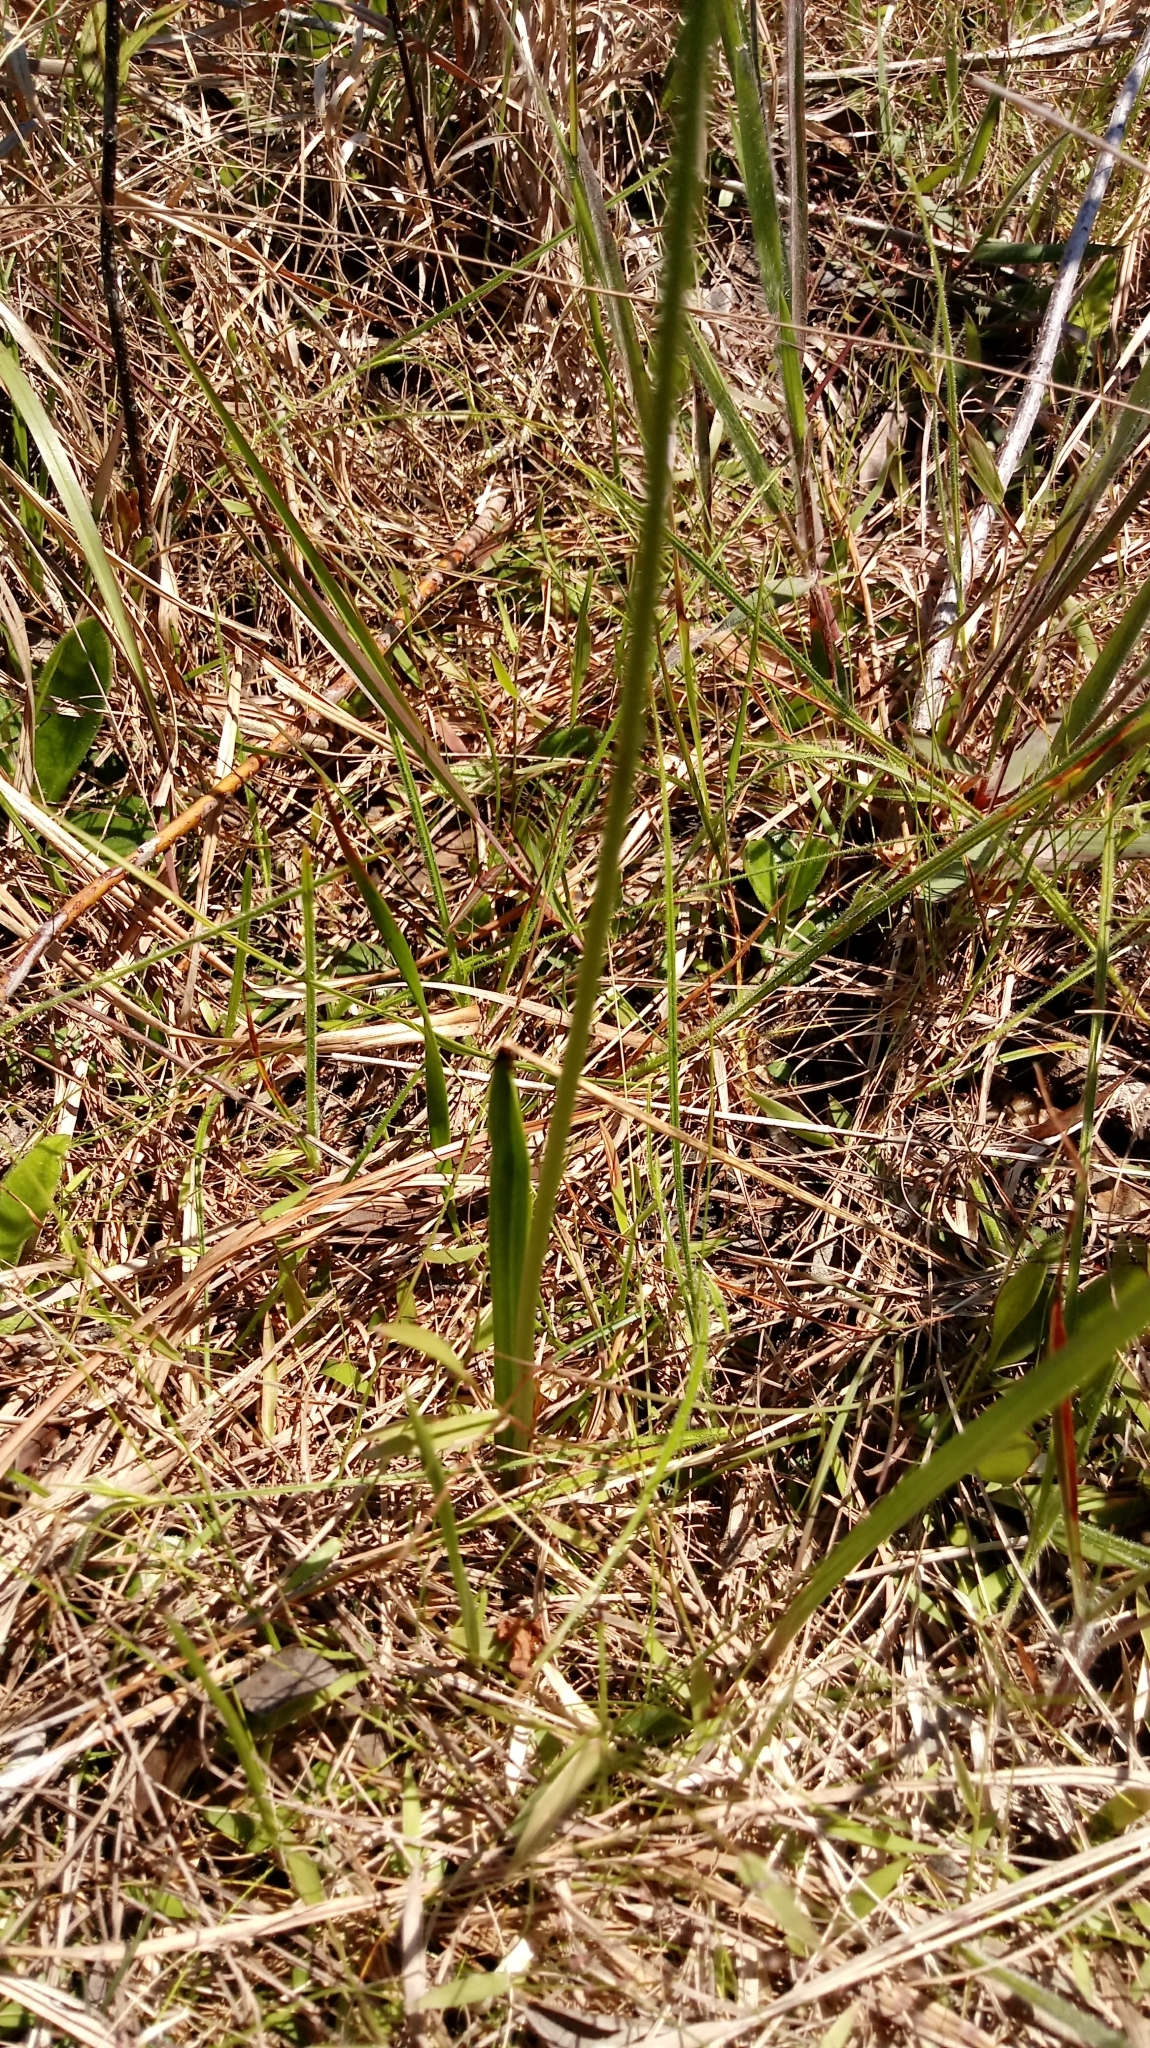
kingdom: Plantae
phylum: Tracheophyta
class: Liliopsida
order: Asparagales
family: Orchidaceae
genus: Calopogon
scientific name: Calopogon pallidus
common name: Pale grasspink
